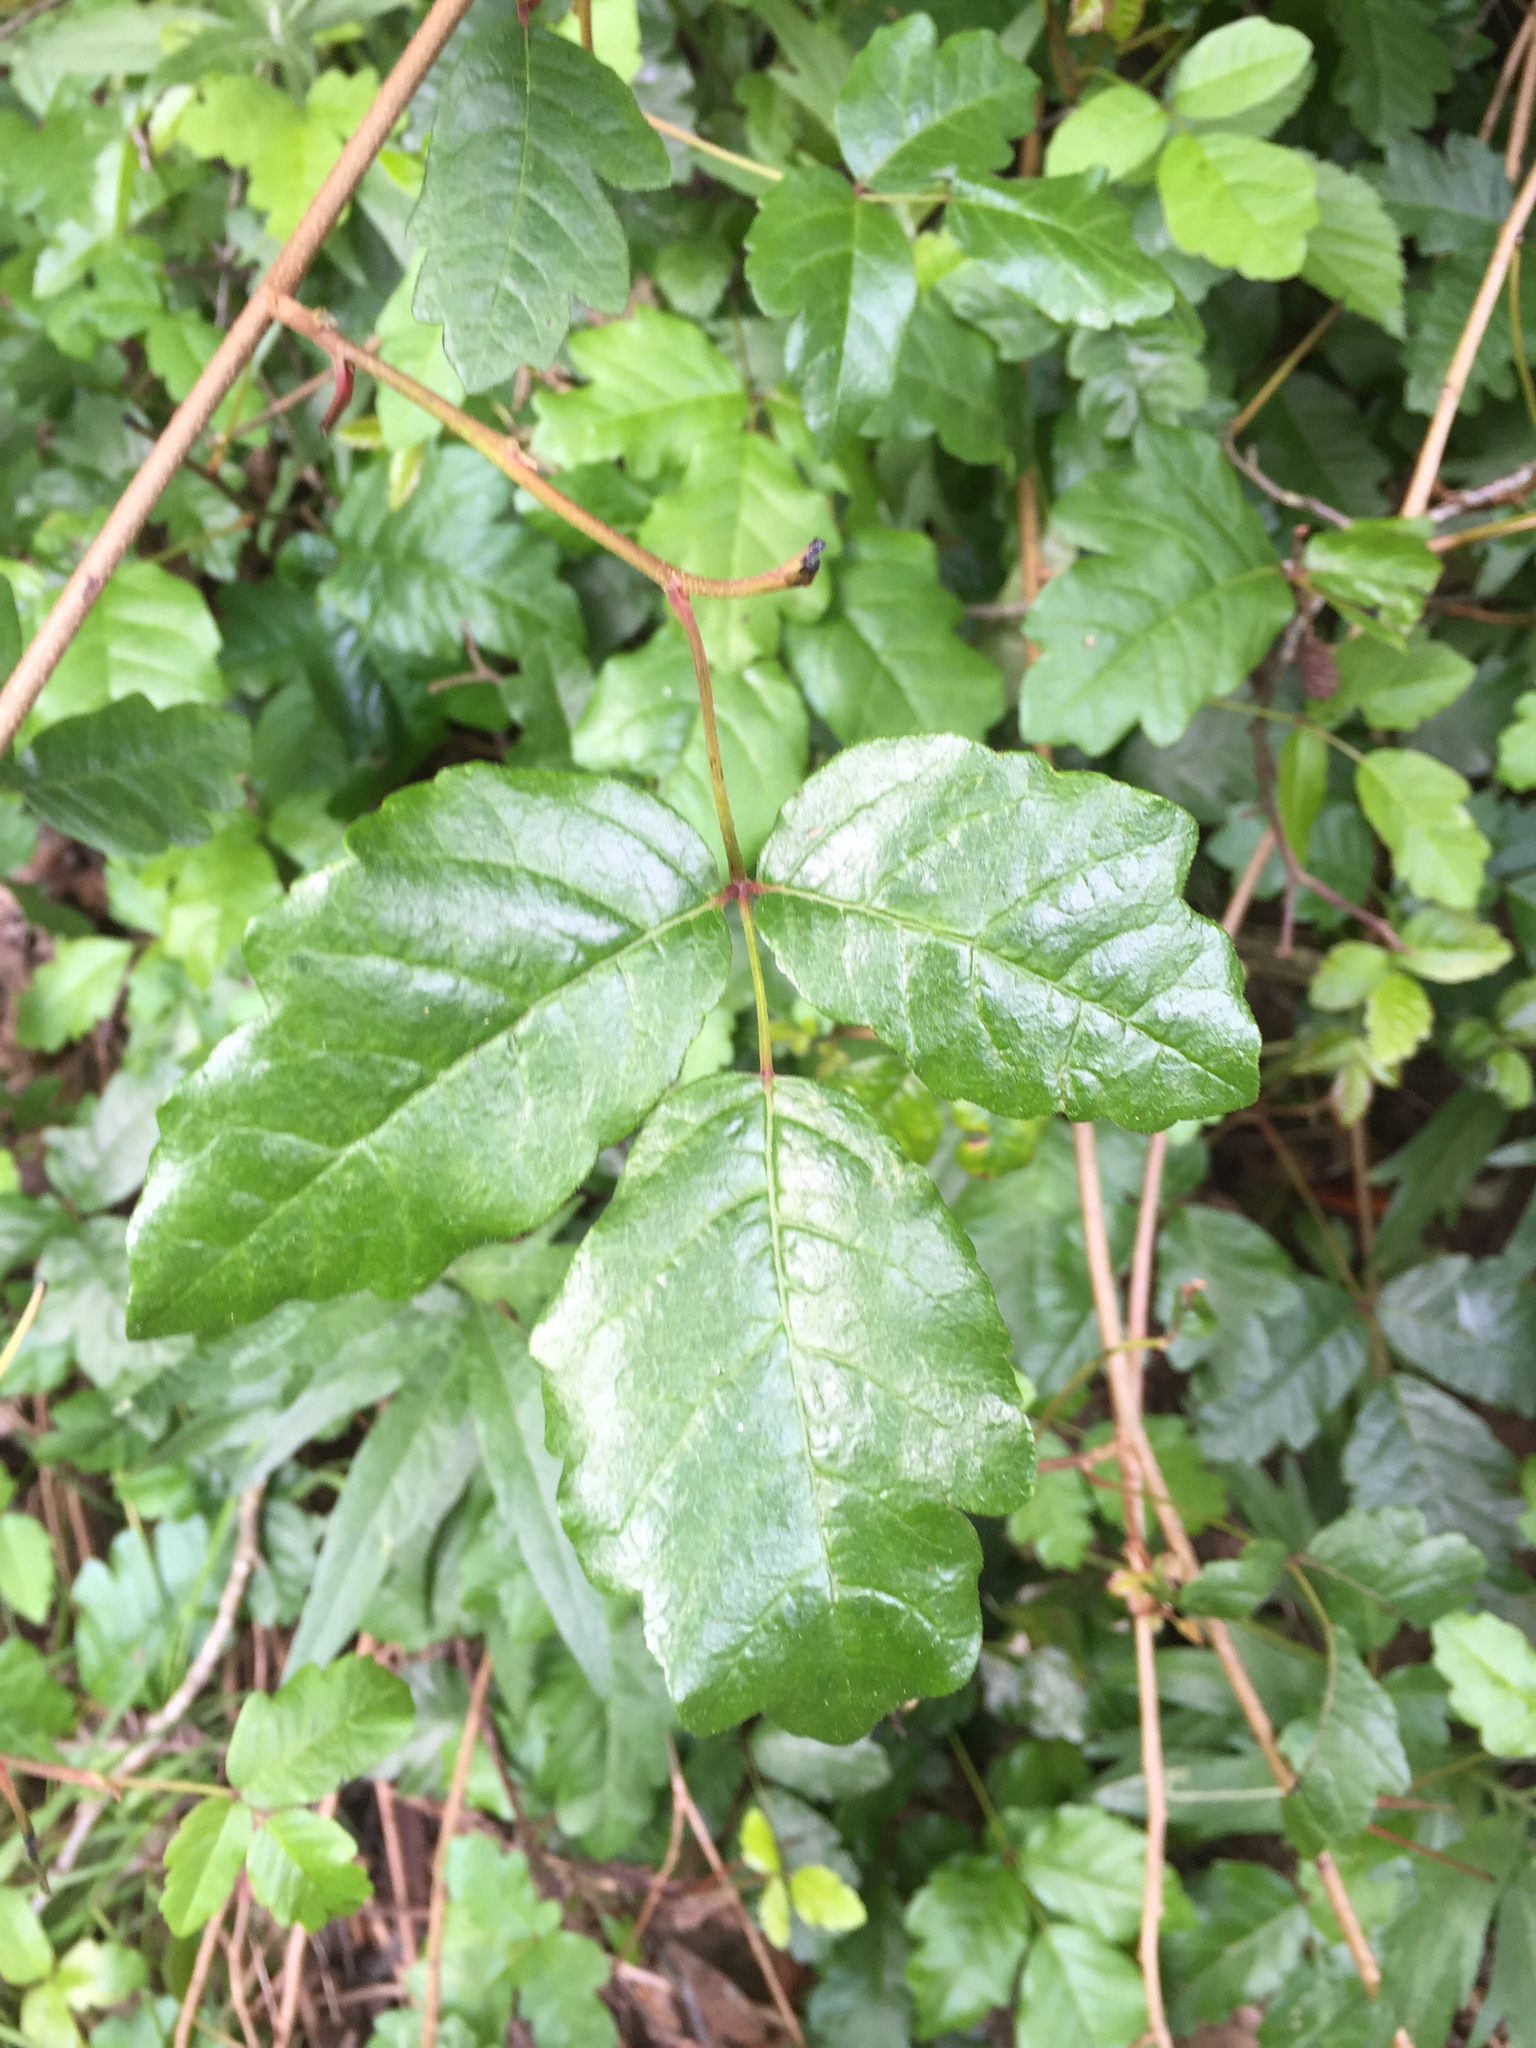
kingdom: Plantae
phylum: Tracheophyta
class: Magnoliopsida
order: Sapindales
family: Anacardiaceae
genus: Toxicodendron
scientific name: Toxicodendron diversilobum
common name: Pacific poison-oak
